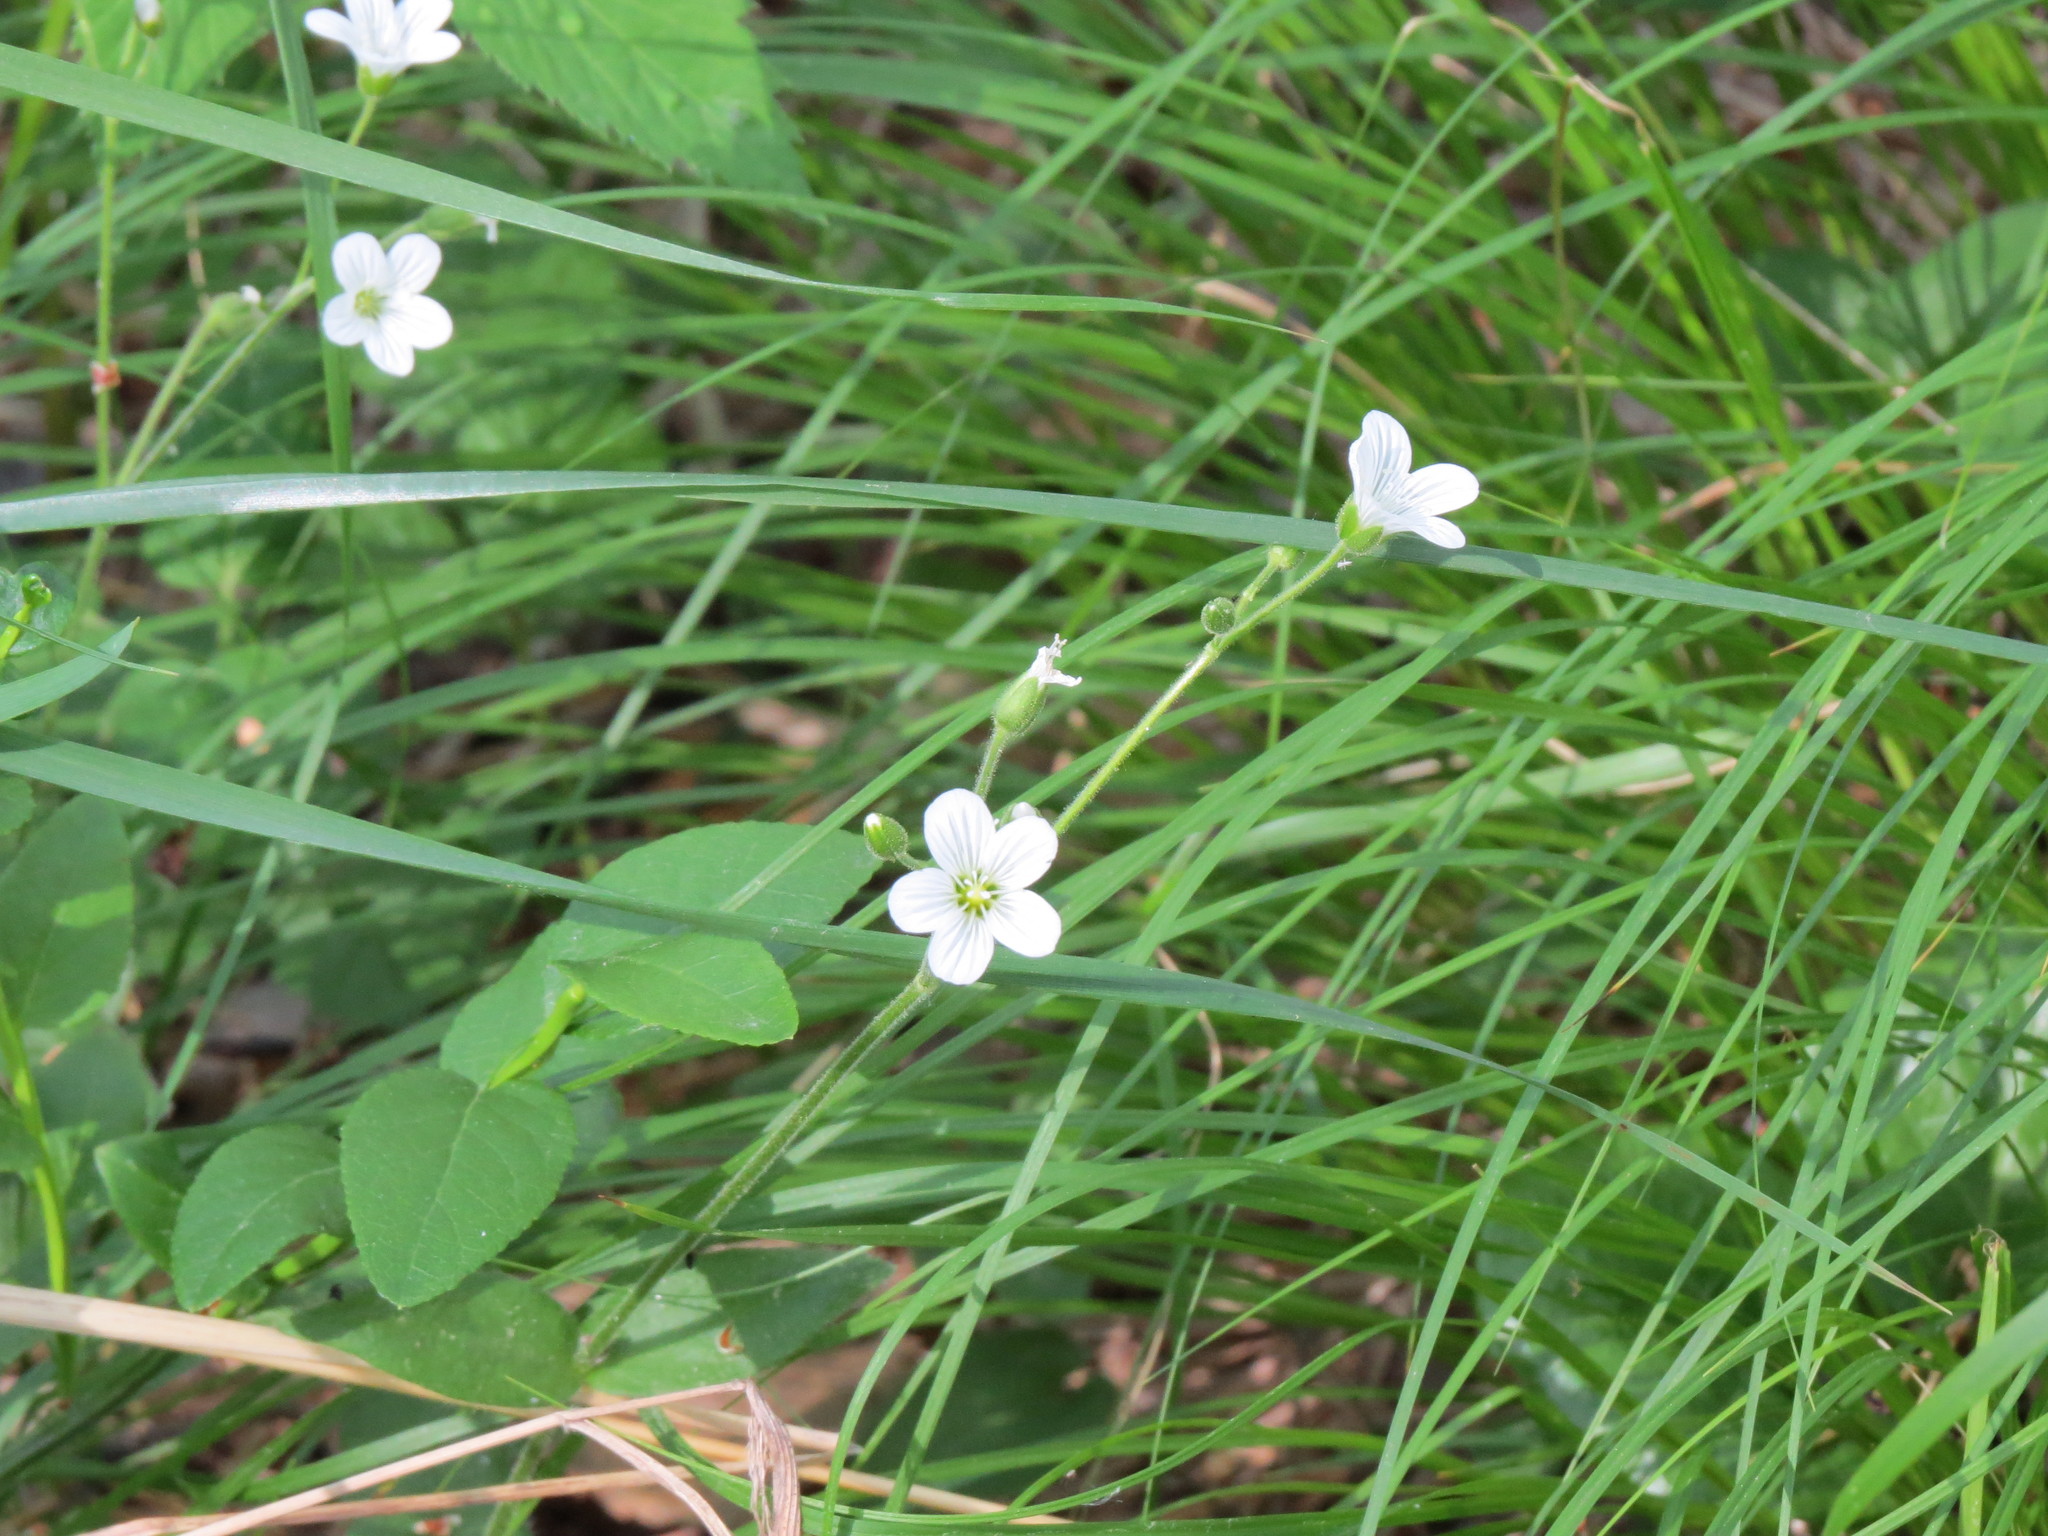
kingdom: Plantae
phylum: Tracheophyta
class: Magnoliopsida
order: Caryophyllales
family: Caryophyllaceae
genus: Cerastium
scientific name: Cerastium pauciflorum
